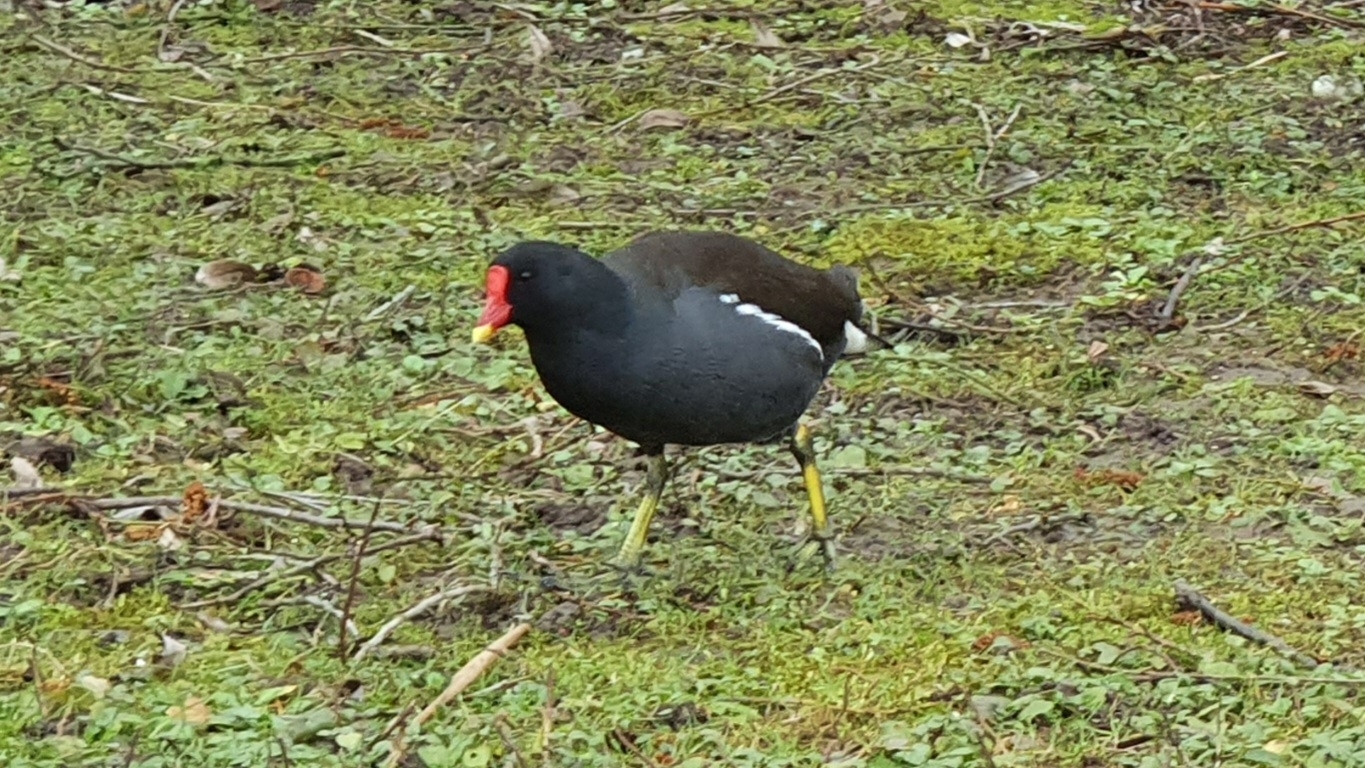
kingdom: Animalia
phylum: Chordata
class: Aves
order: Gruiformes
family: Rallidae
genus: Gallinula
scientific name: Gallinula chloropus
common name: Common moorhen
